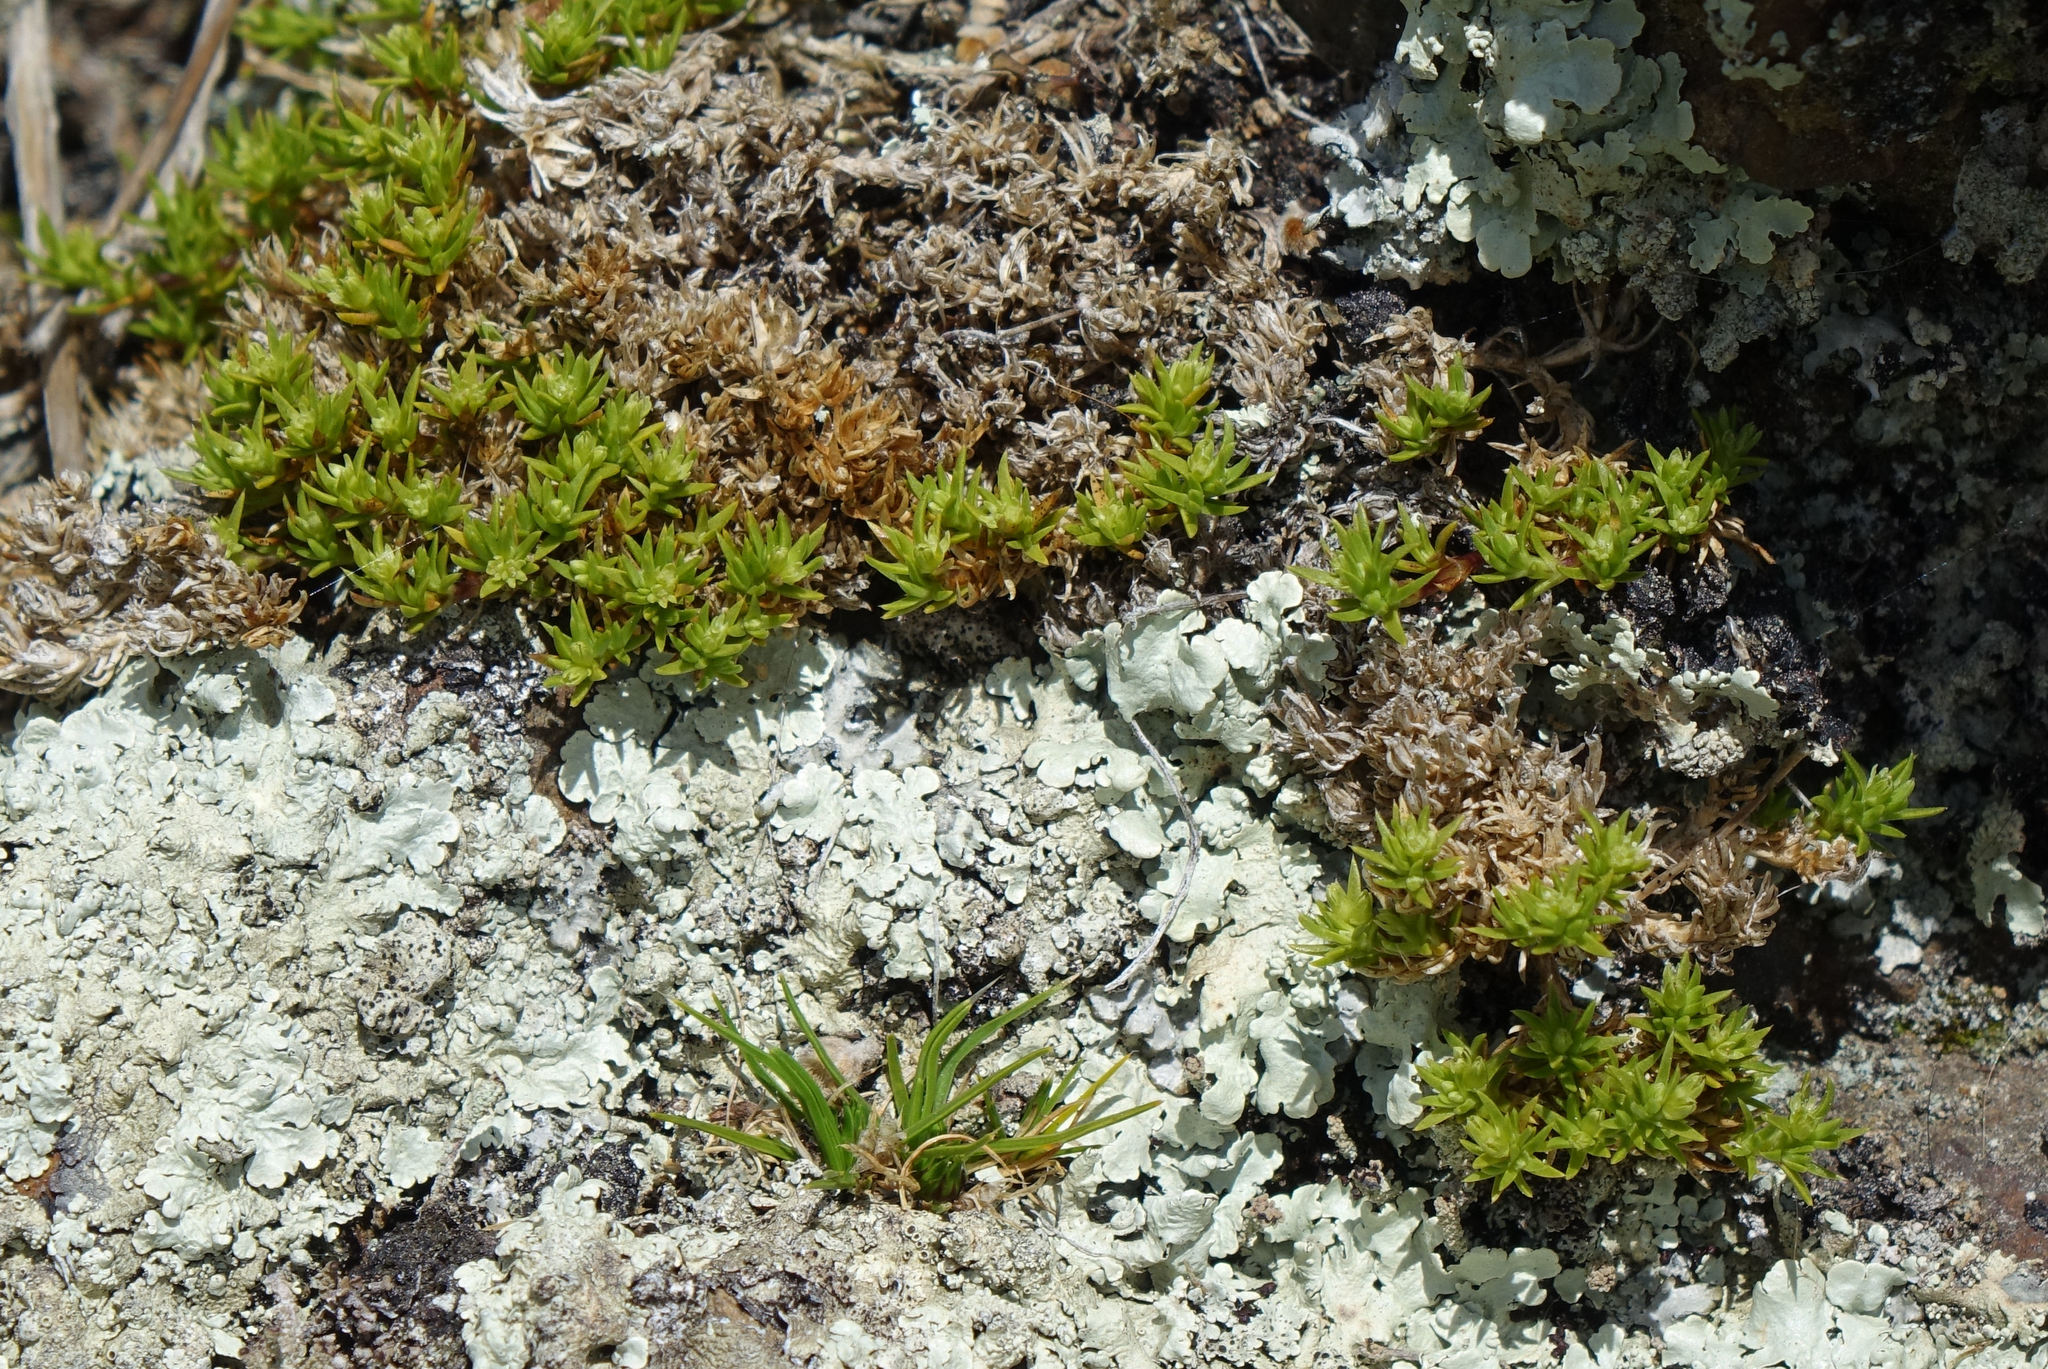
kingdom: Plantae
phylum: Tracheophyta
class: Magnoliopsida
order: Caryophyllales
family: Caryophyllaceae
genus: Scleranthus
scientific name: Scleranthus brockiei
